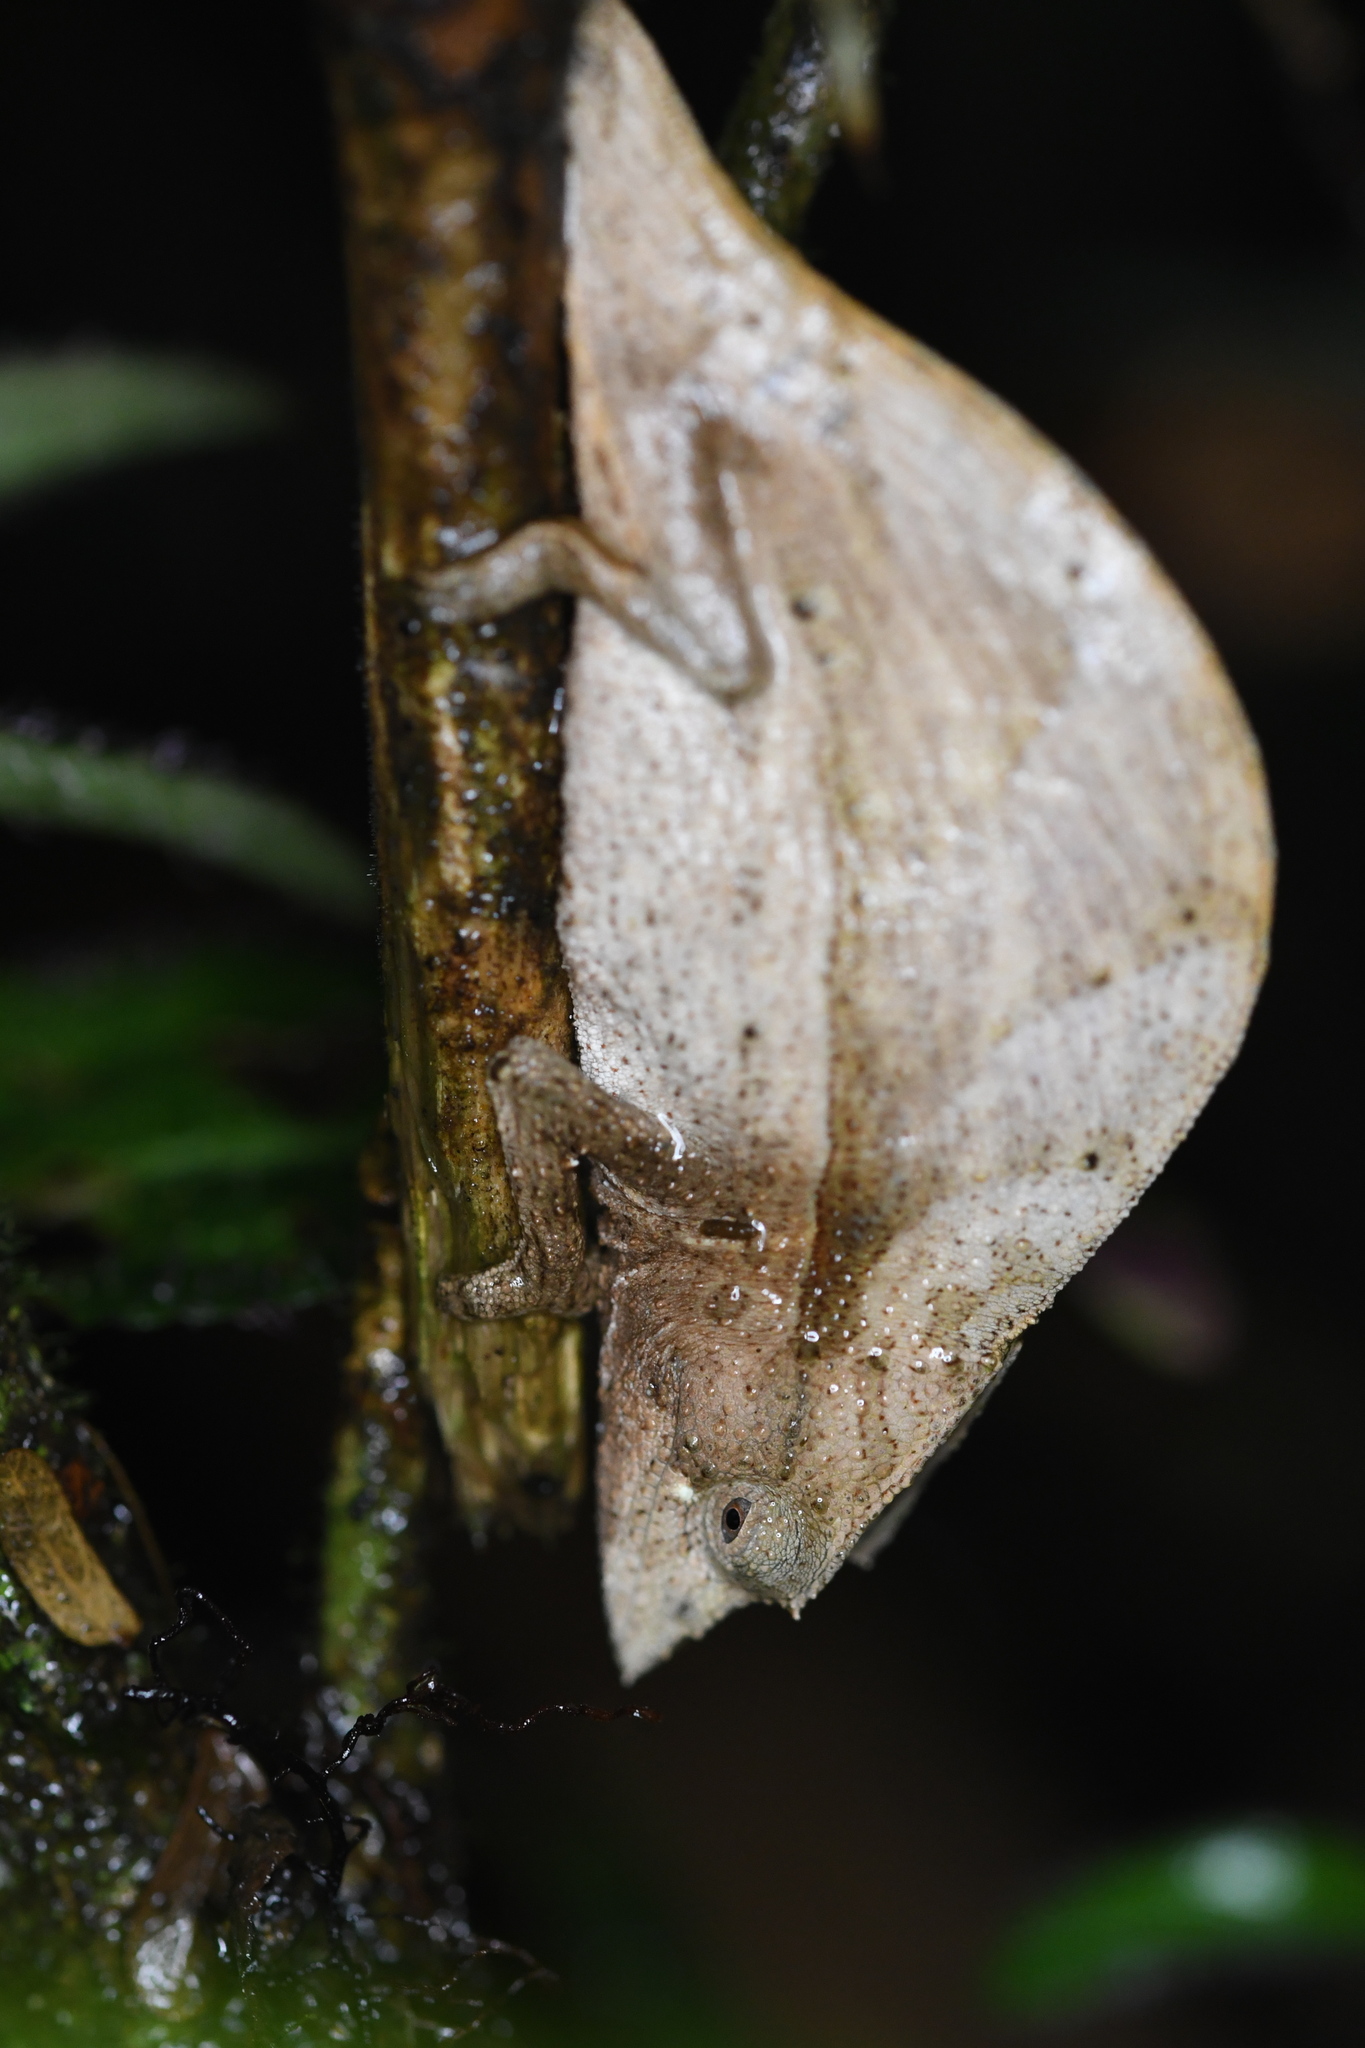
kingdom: Animalia
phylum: Chordata
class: Squamata
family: Chamaeleonidae
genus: Palleon
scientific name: Palleon nasus
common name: Elongate leaf chameleon
